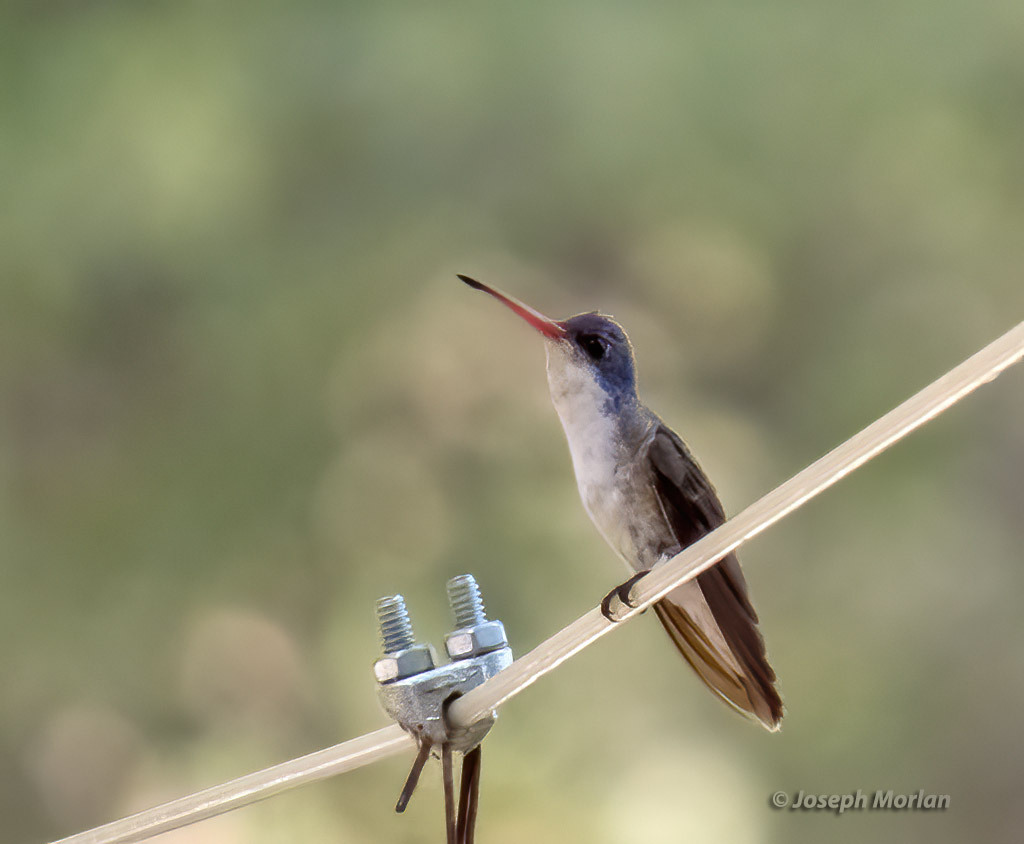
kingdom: Animalia
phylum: Chordata
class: Aves
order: Apodiformes
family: Trochilidae
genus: Leucolia
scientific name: Leucolia violiceps
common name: Violet-crowned hummingbird
